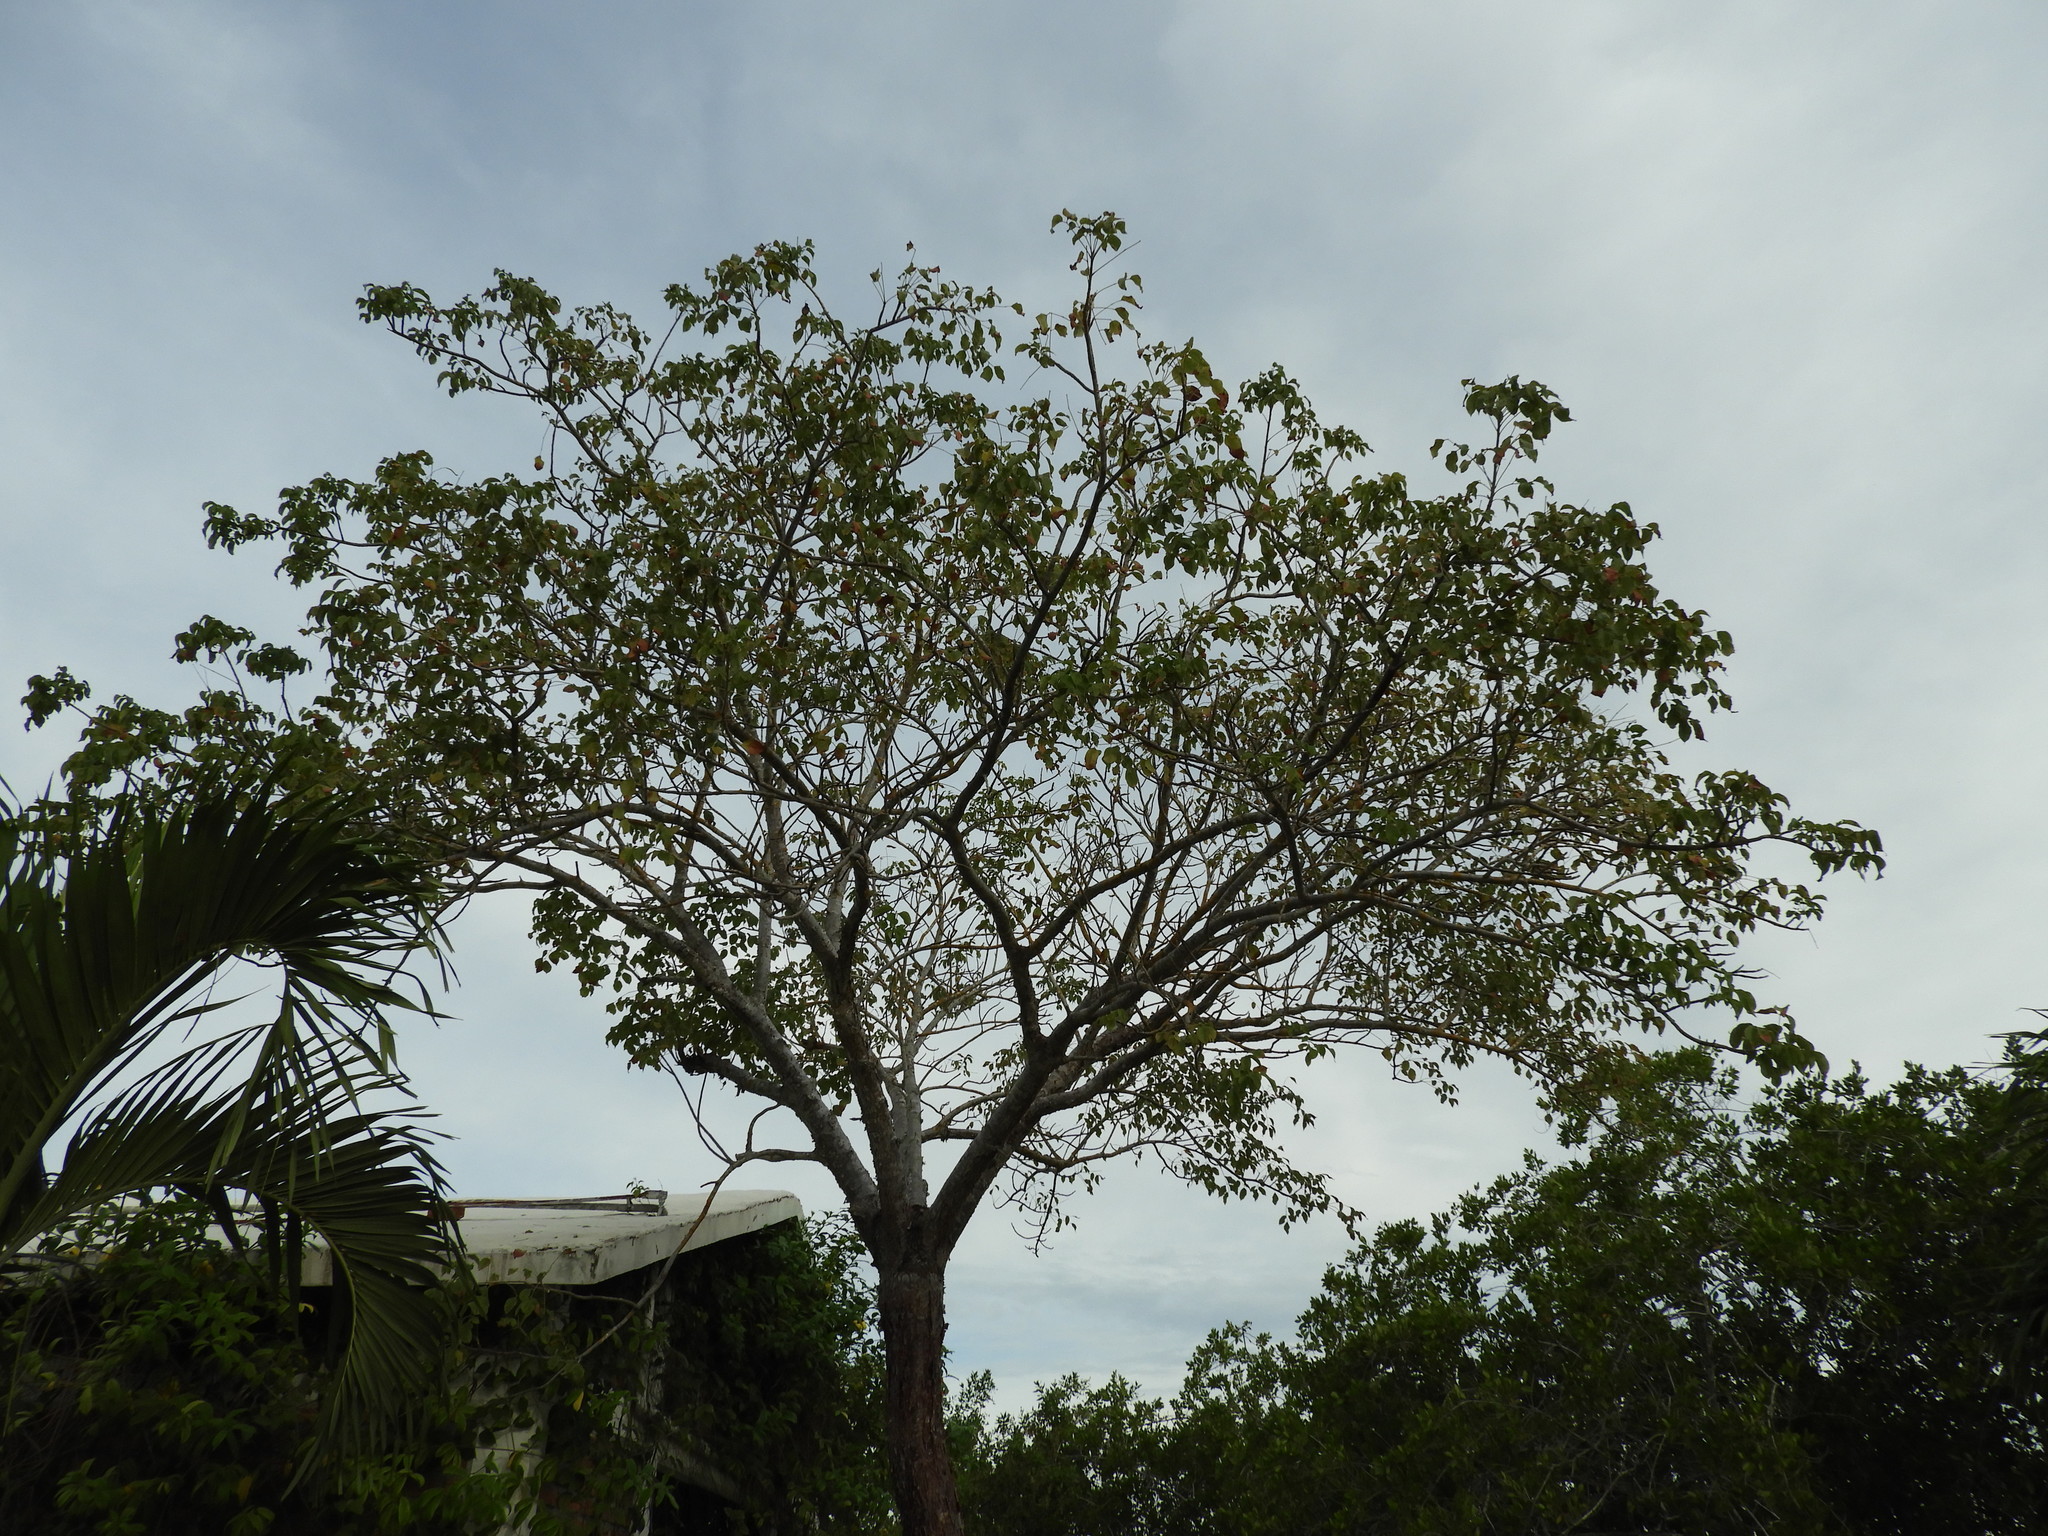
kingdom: Plantae
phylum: Tracheophyta
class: Magnoliopsida
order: Sapindales
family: Burseraceae
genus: Bursera
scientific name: Bursera simaruba
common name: Turpentine tree
